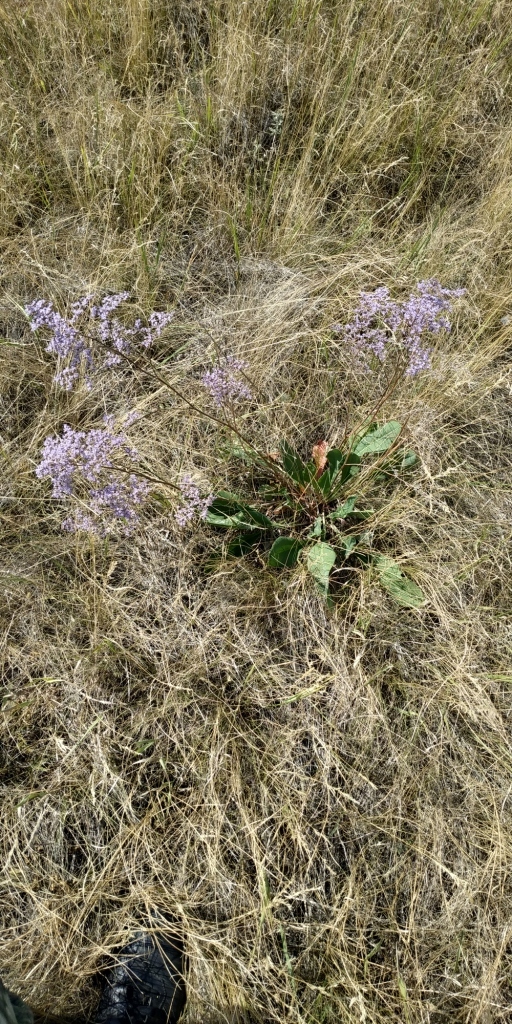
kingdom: Plantae
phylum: Tracheophyta
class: Magnoliopsida
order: Caryophyllales
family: Plumbaginaceae
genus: Limonium
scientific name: Limonium gmelini
